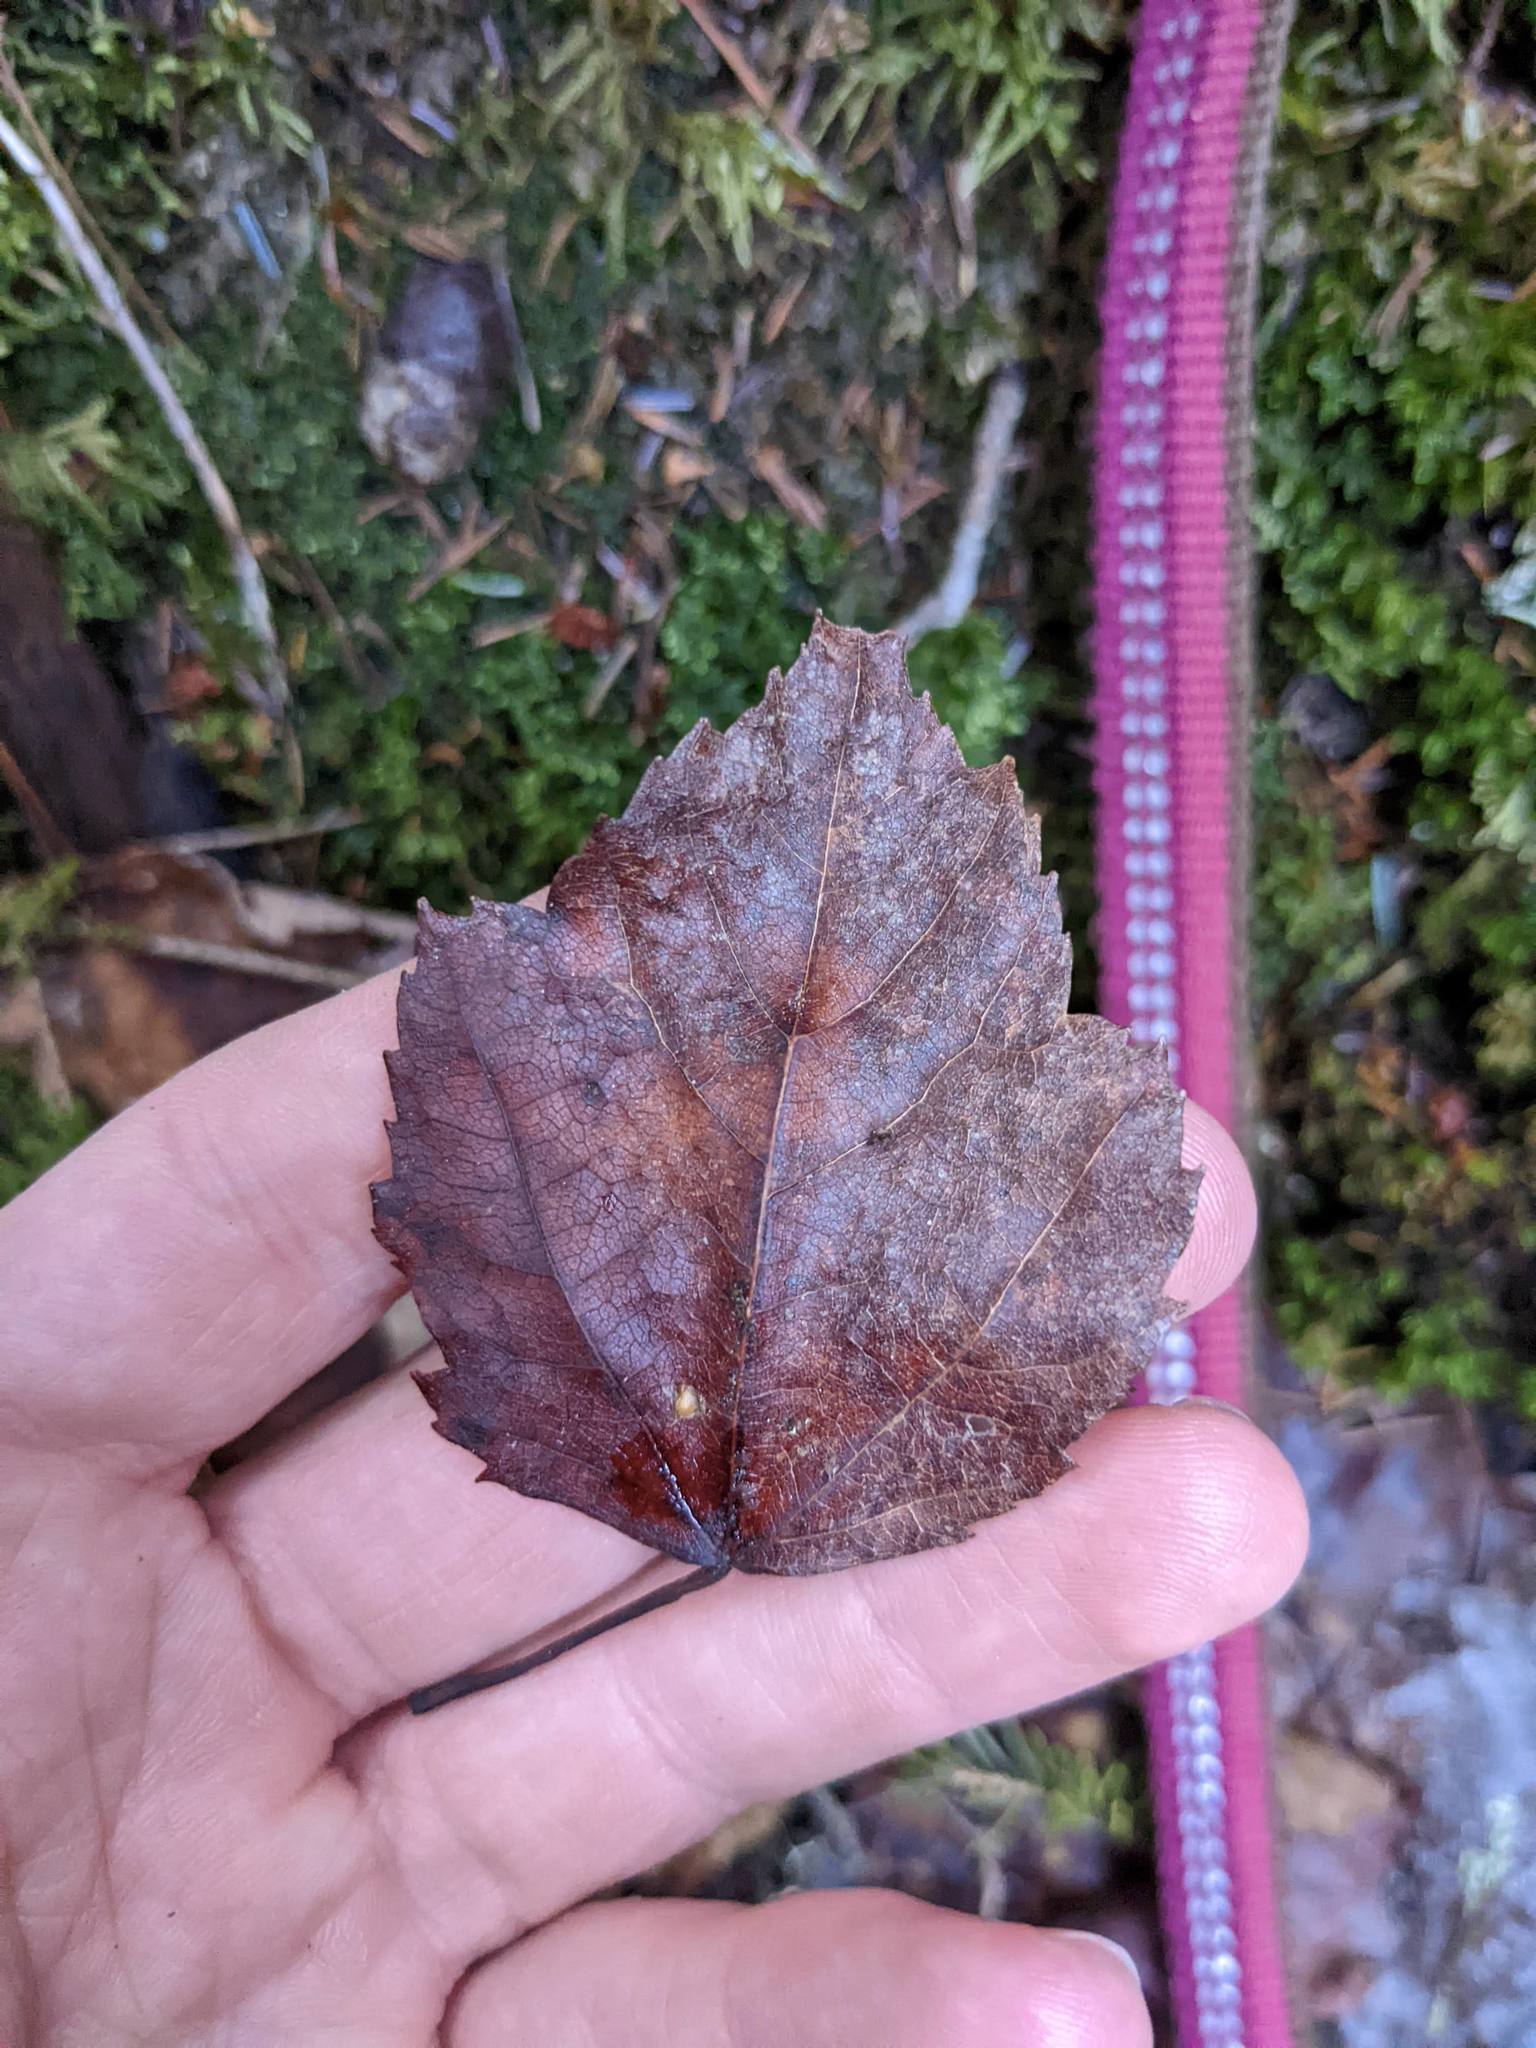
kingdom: Plantae
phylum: Tracheophyta
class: Magnoliopsida
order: Sapindales
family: Sapindaceae
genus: Acer
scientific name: Acer rubrum
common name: Red maple
